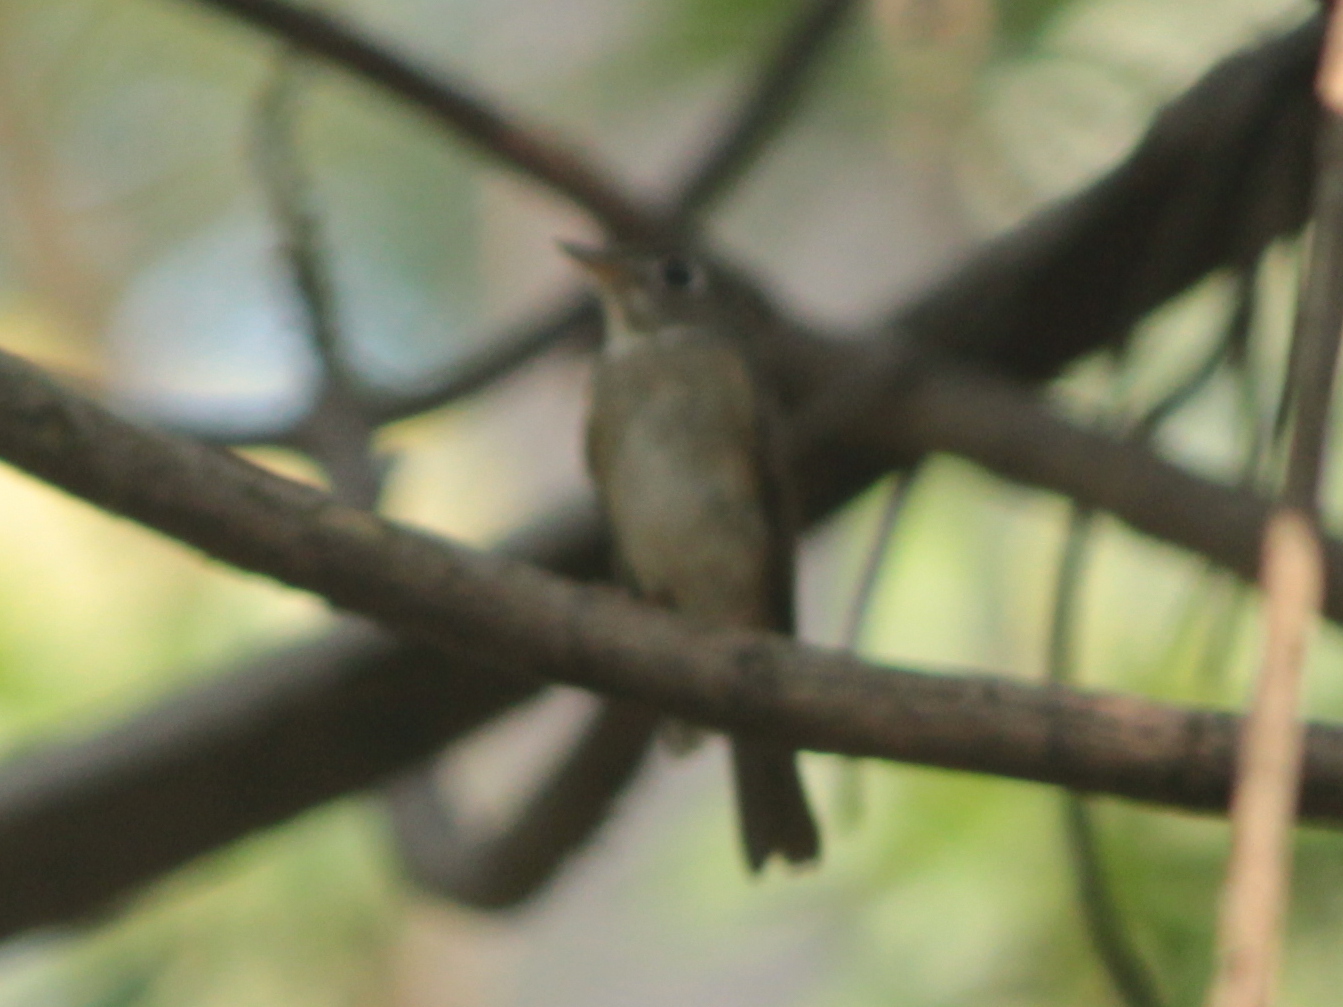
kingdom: Animalia
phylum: Chordata
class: Aves
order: Passeriformes
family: Muscicapidae
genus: Muscicapa
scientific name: Muscicapa muttui
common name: Brown-breasted flycatcher
